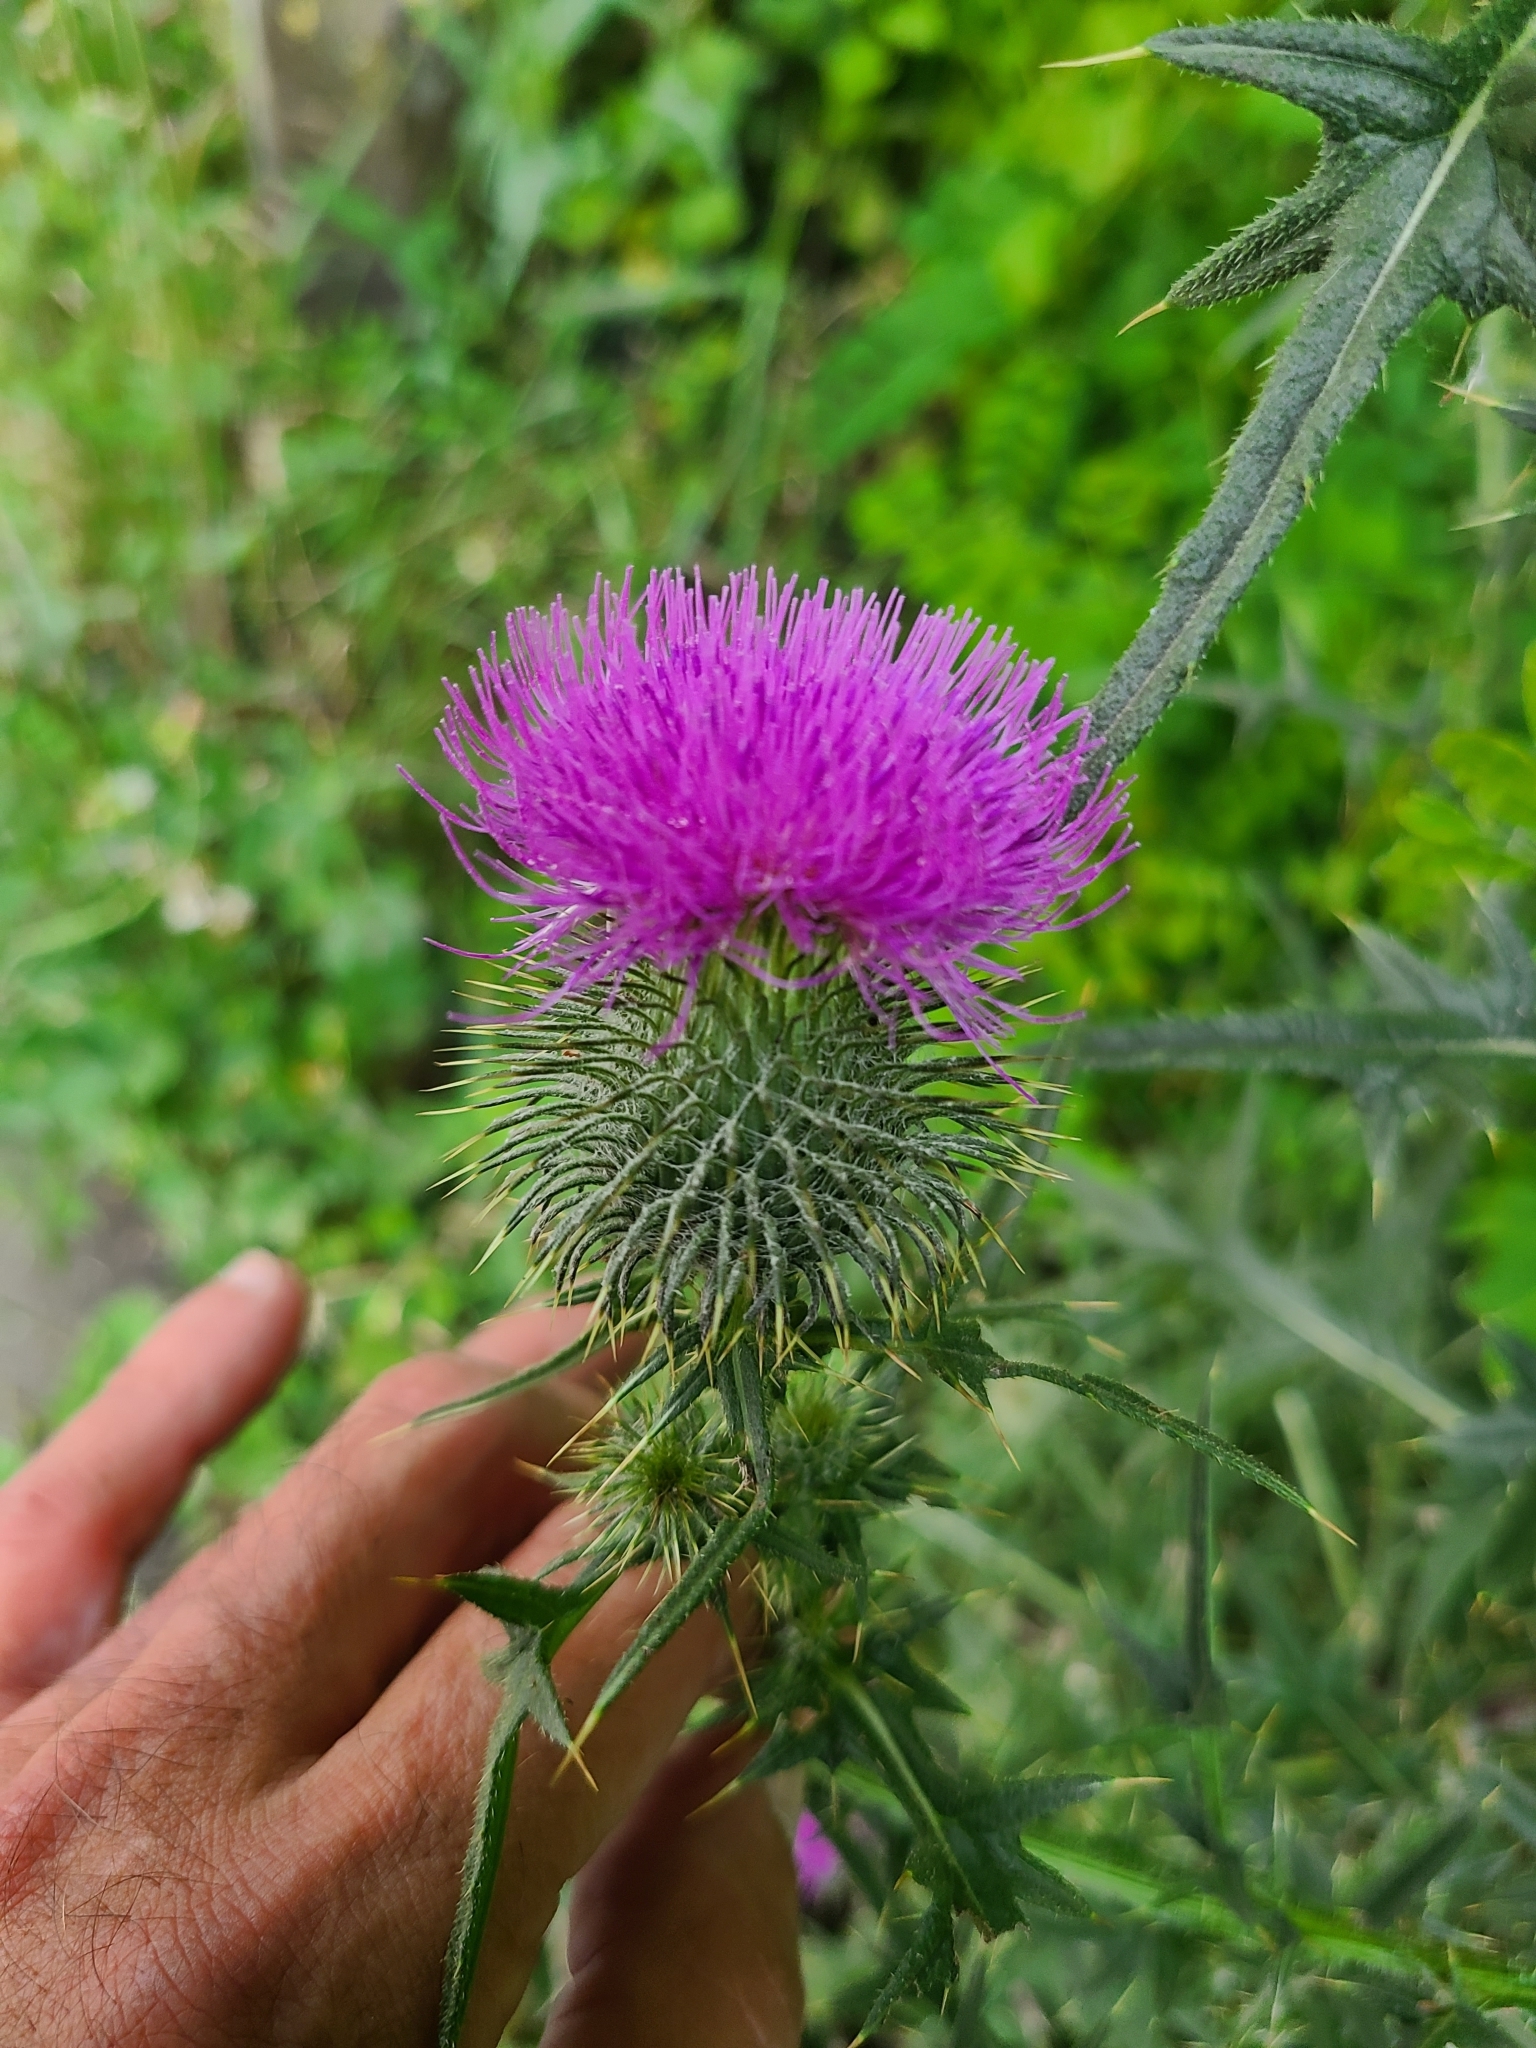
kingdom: Plantae
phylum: Tracheophyta
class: Magnoliopsida
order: Asterales
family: Asteraceae
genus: Cirsium
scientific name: Cirsium vulgare
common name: Bull thistle
